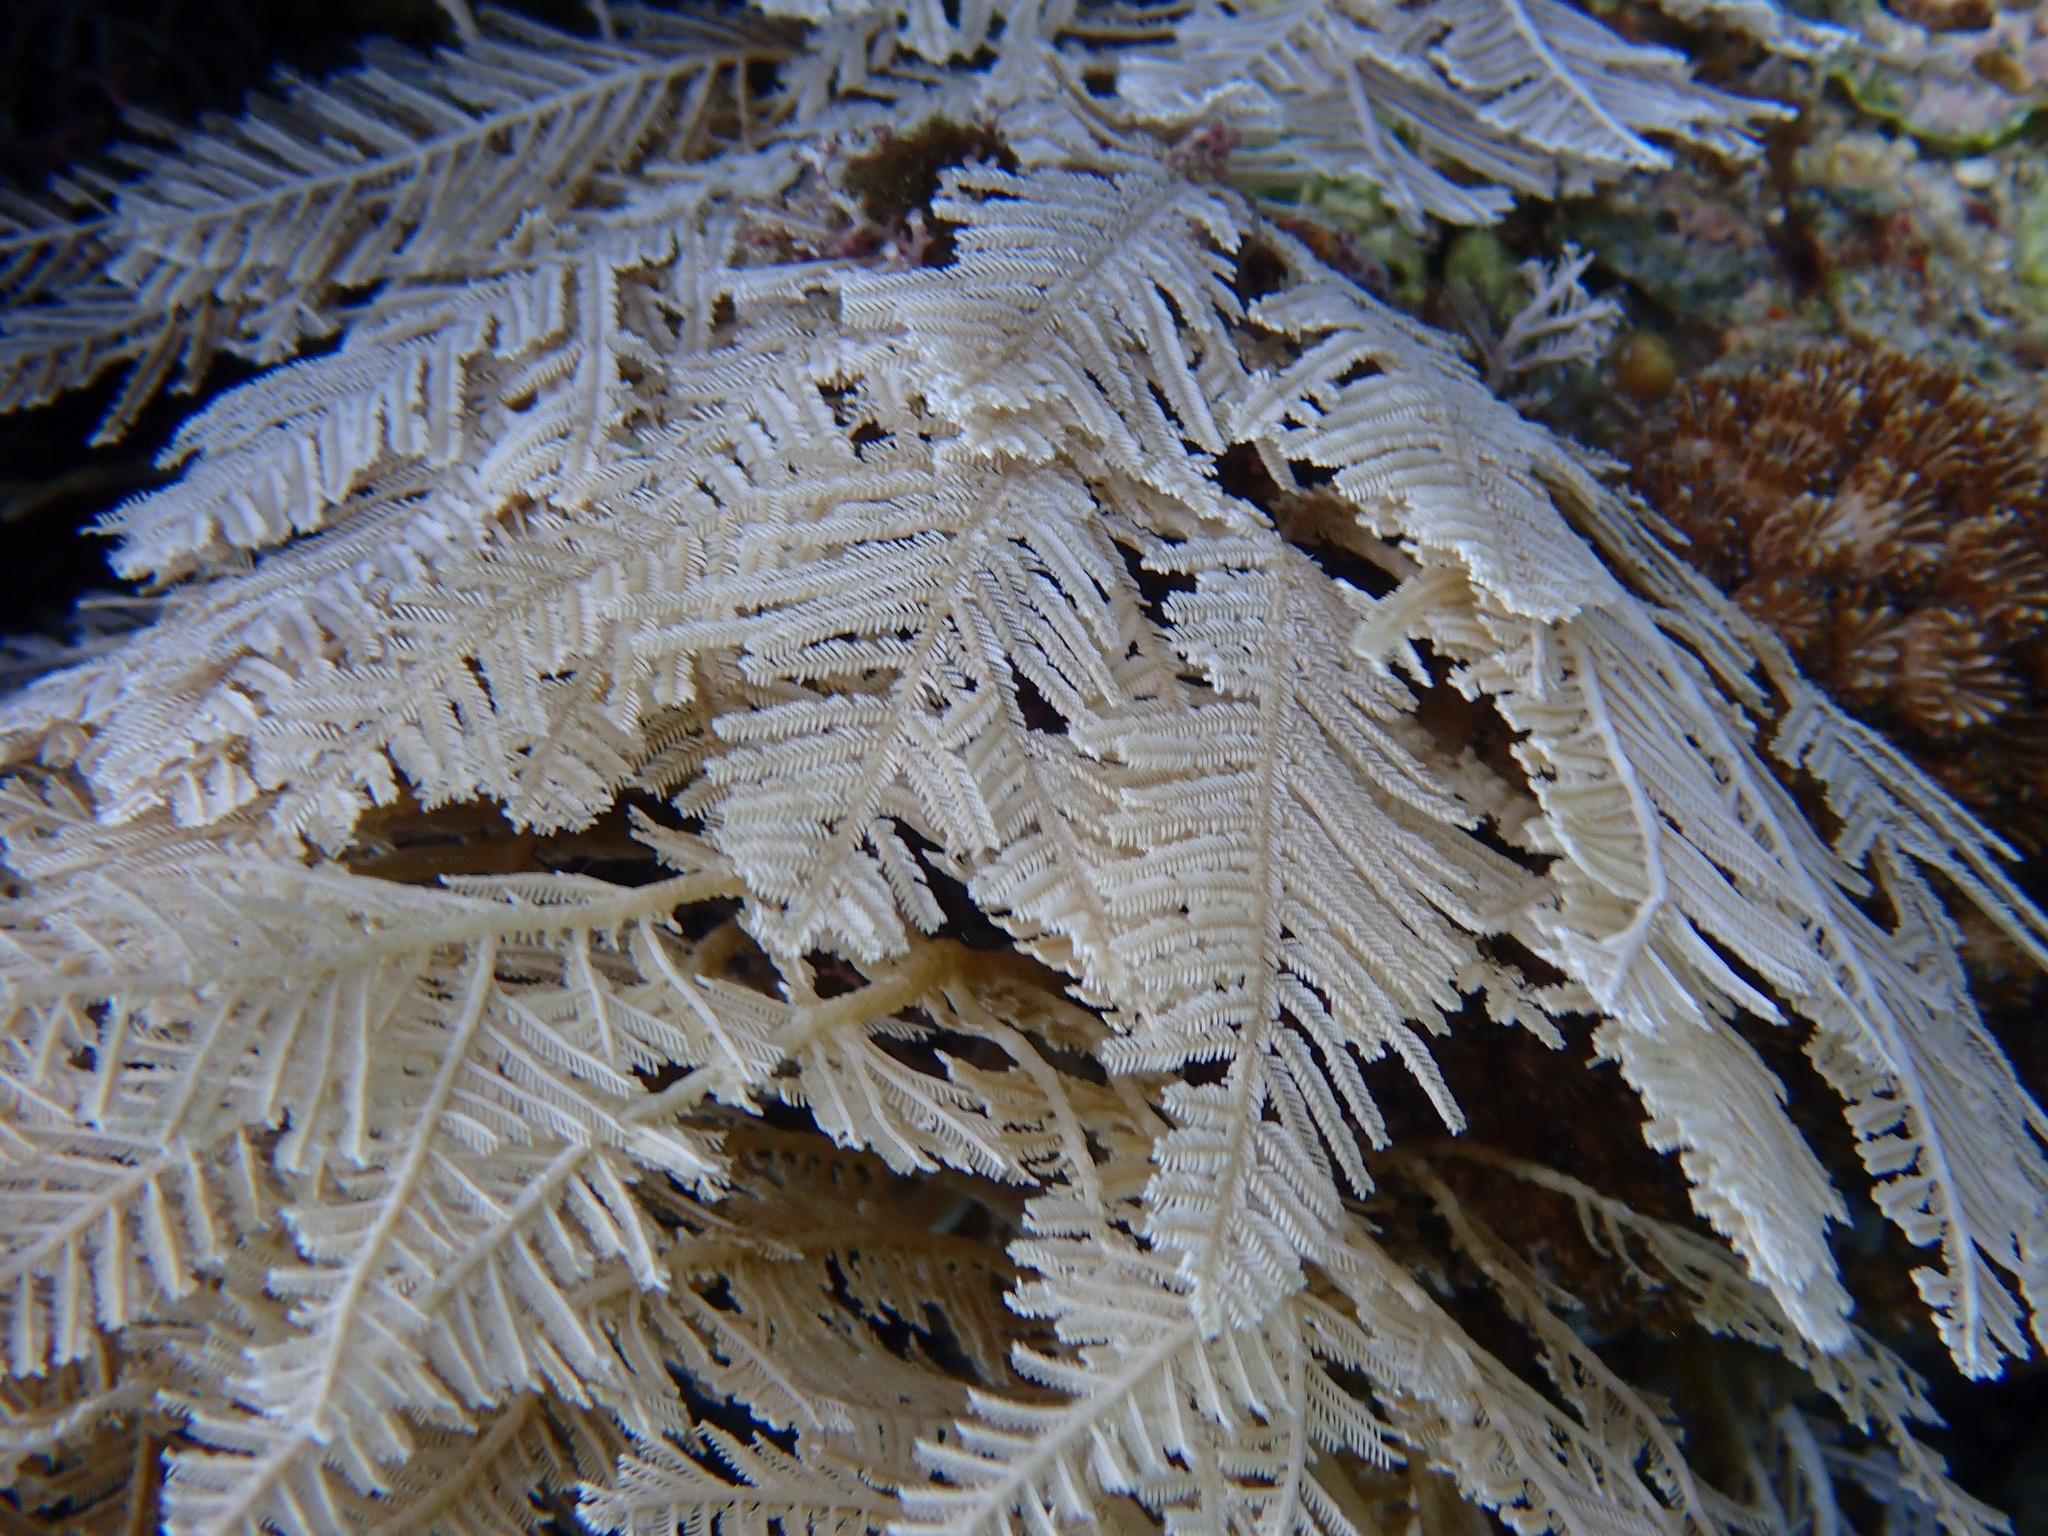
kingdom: Animalia
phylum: Cnidaria
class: Hydrozoa
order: Leptothecata
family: Aglaopheniidae
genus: Pachyrhynchia
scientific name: Pachyrhynchia cuppressina
